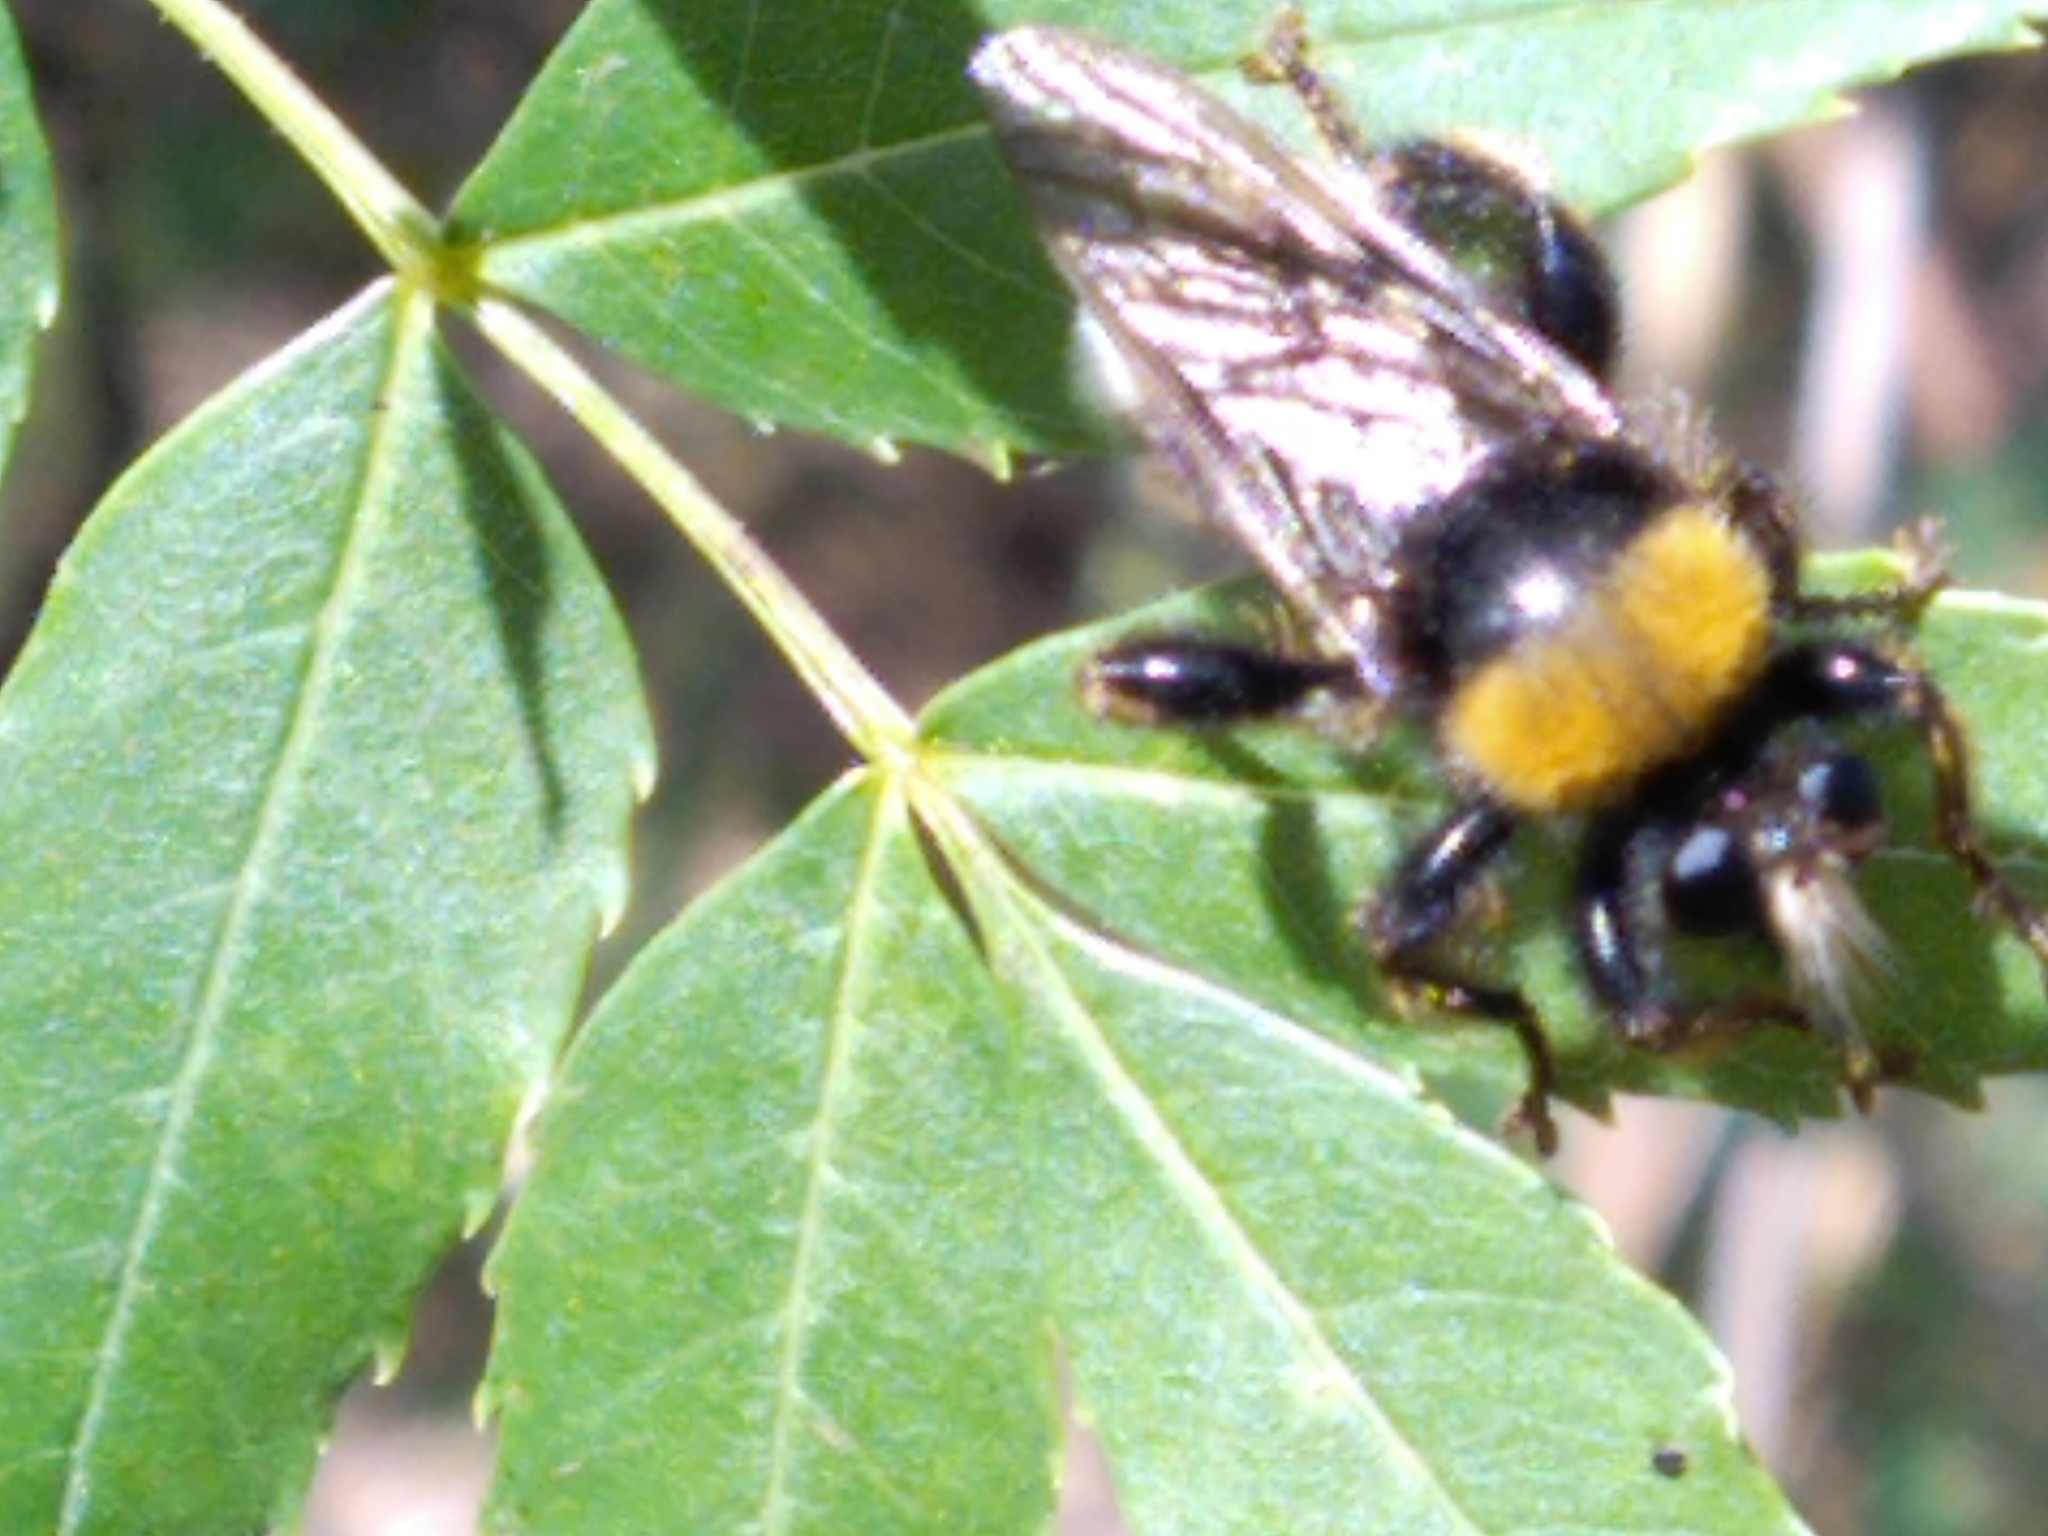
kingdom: Animalia
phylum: Arthropoda
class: Insecta
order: Diptera
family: Asilidae
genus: Laphria
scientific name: Laphria bomboides
